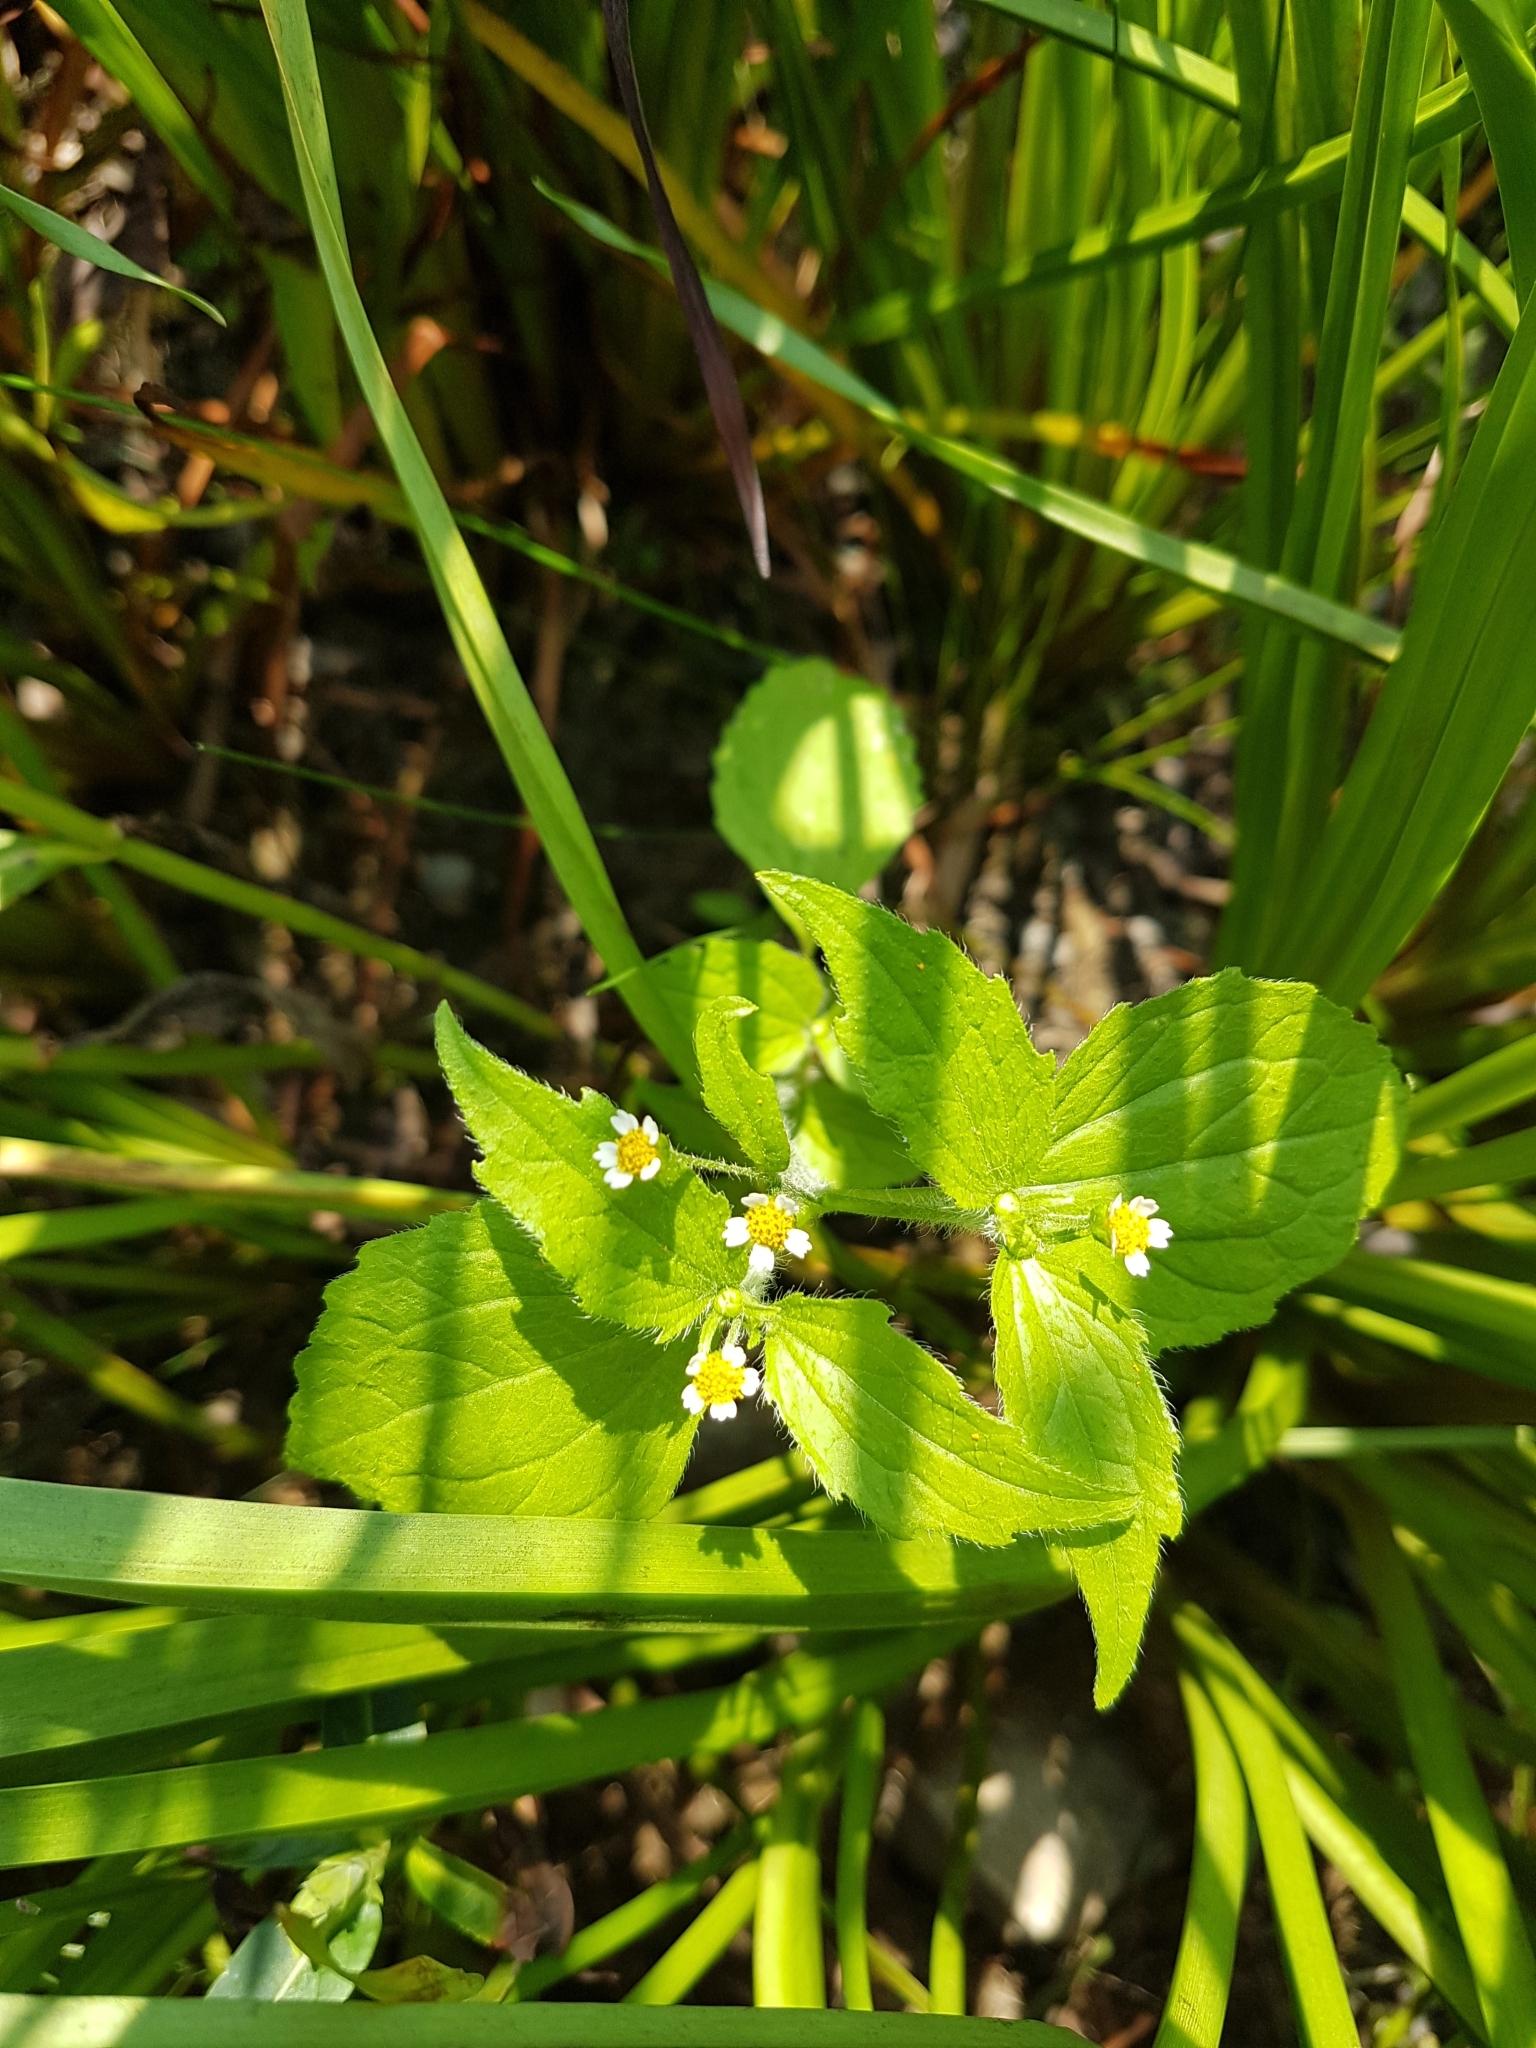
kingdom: Plantae
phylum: Tracheophyta
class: Magnoliopsida
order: Asterales
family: Asteraceae
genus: Galinsoga
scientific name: Galinsoga quadriradiata
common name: Shaggy soldier
